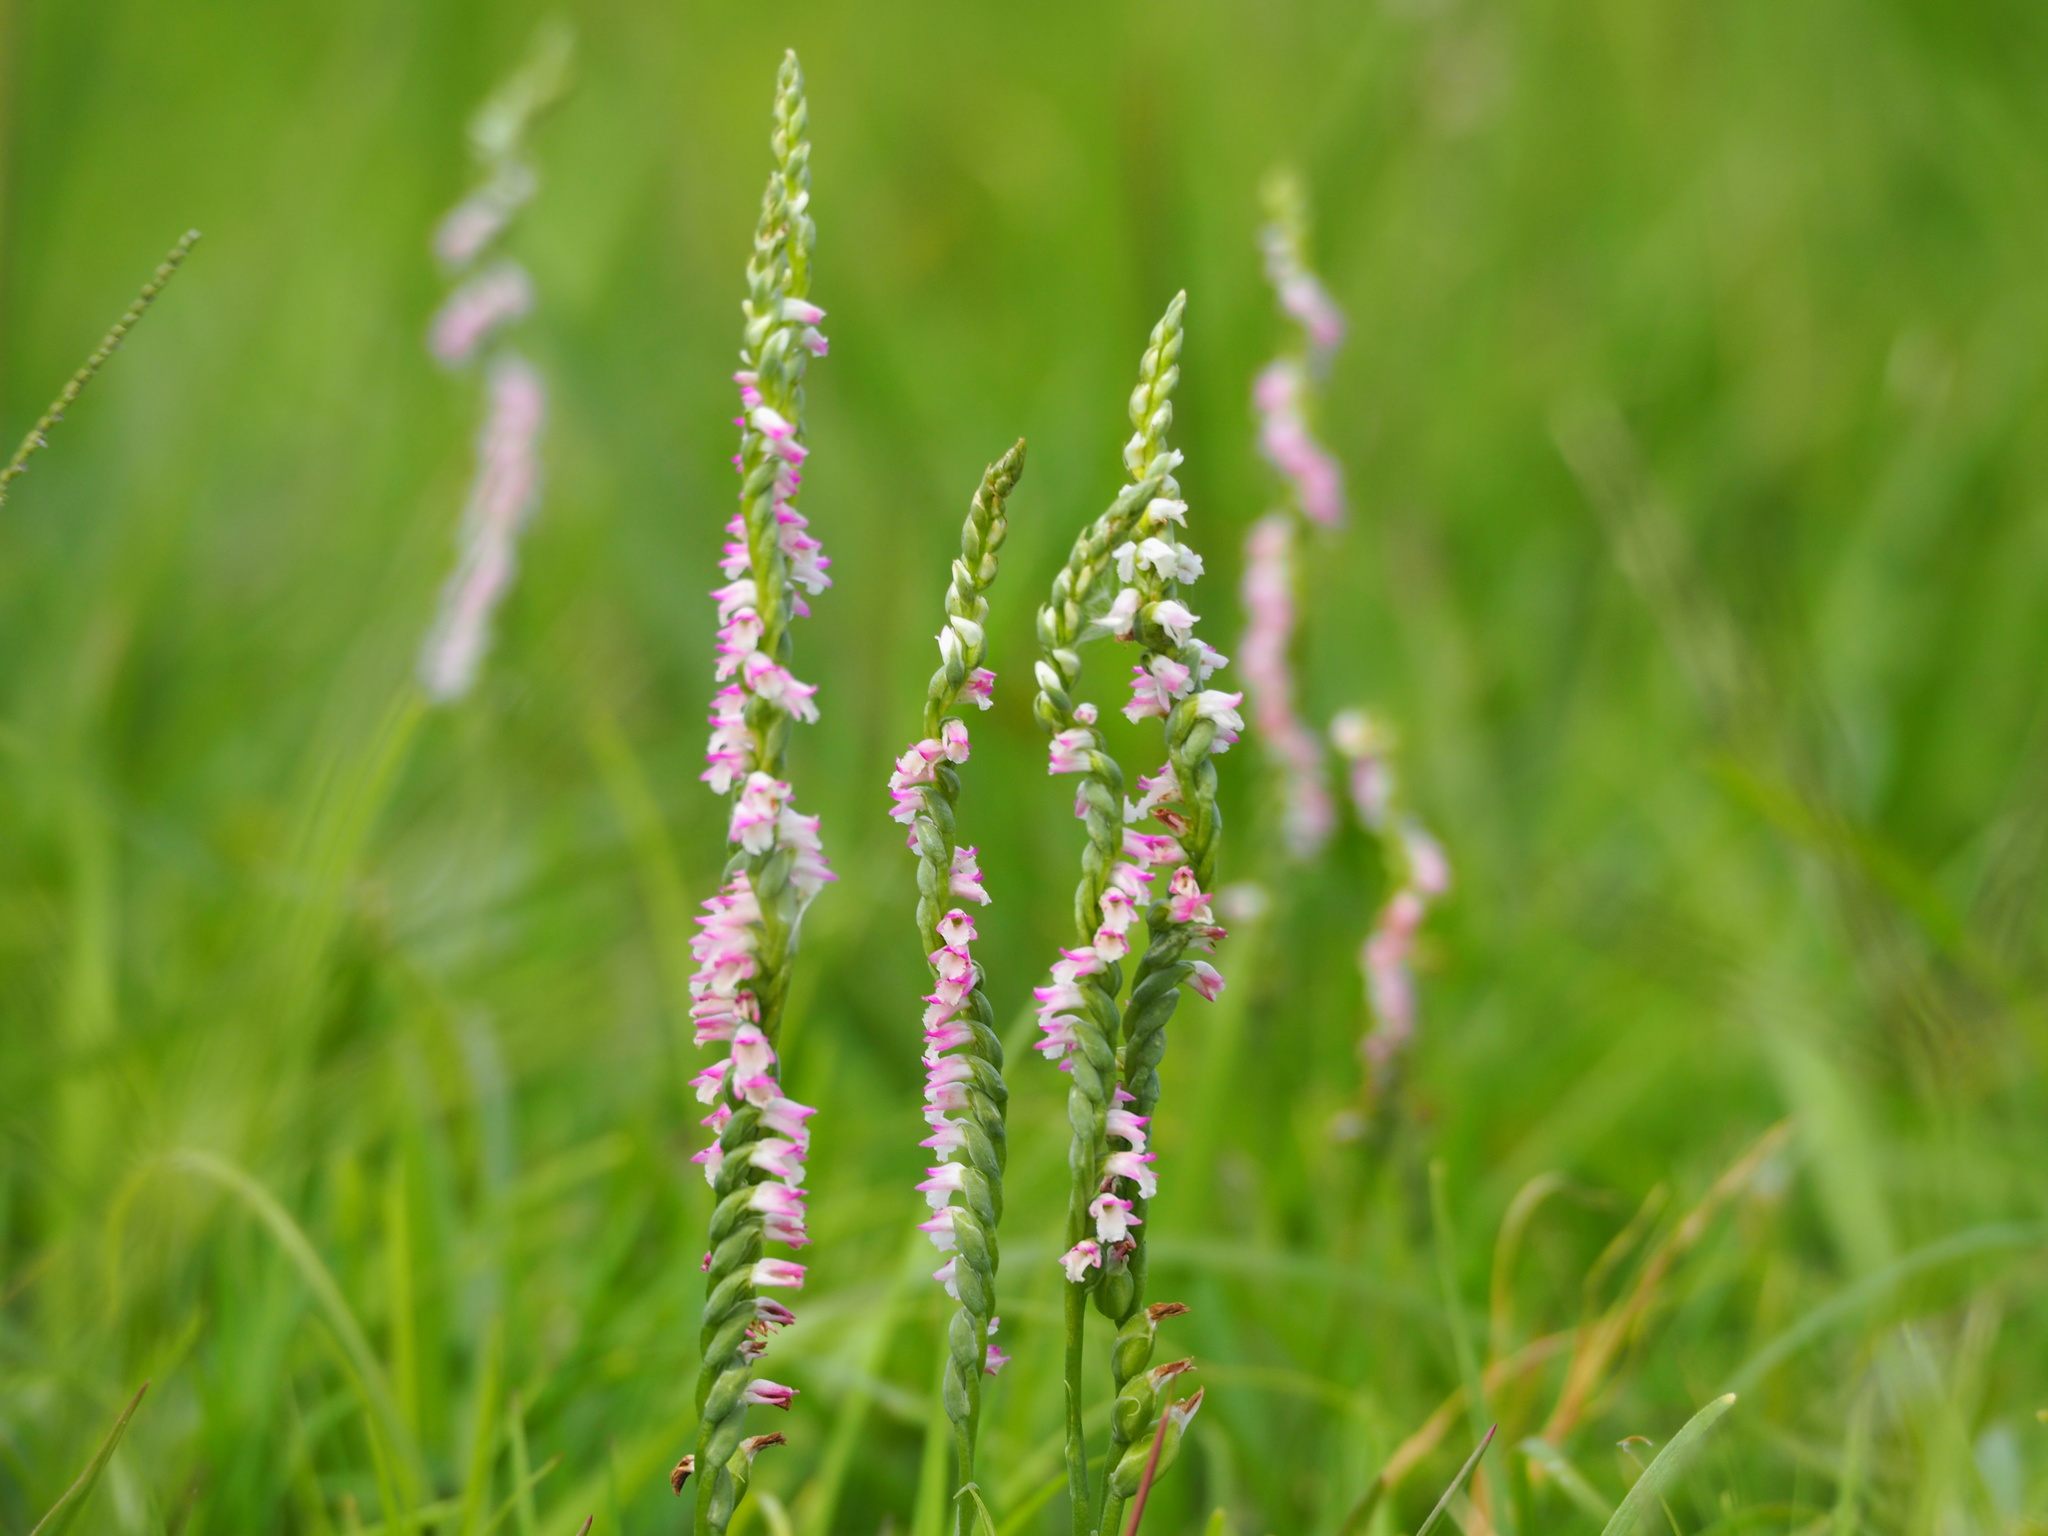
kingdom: Plantae
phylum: Tracheophyta
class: Liliopsida
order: Asparagales
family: Orchidaceae
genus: Spiranthes
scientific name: Spiranthes sinensis
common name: Chinese spiranthes
